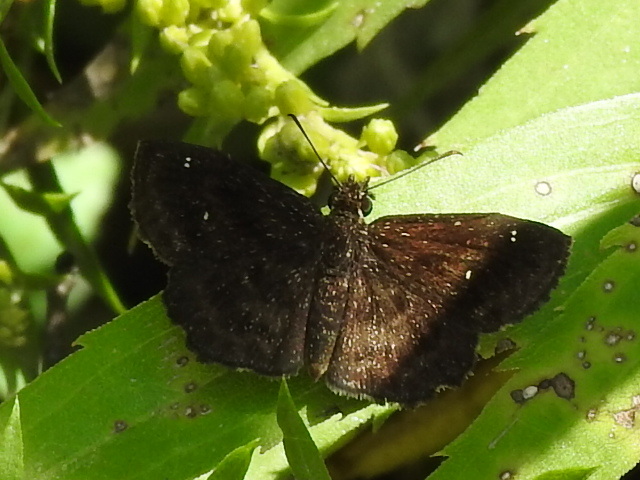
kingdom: Animalia
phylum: Arthropoda
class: Insecta
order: Lepidoptera
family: Hesperiidae
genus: Staphylus
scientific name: Staphylus mazans
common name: Mazans scallopwing
